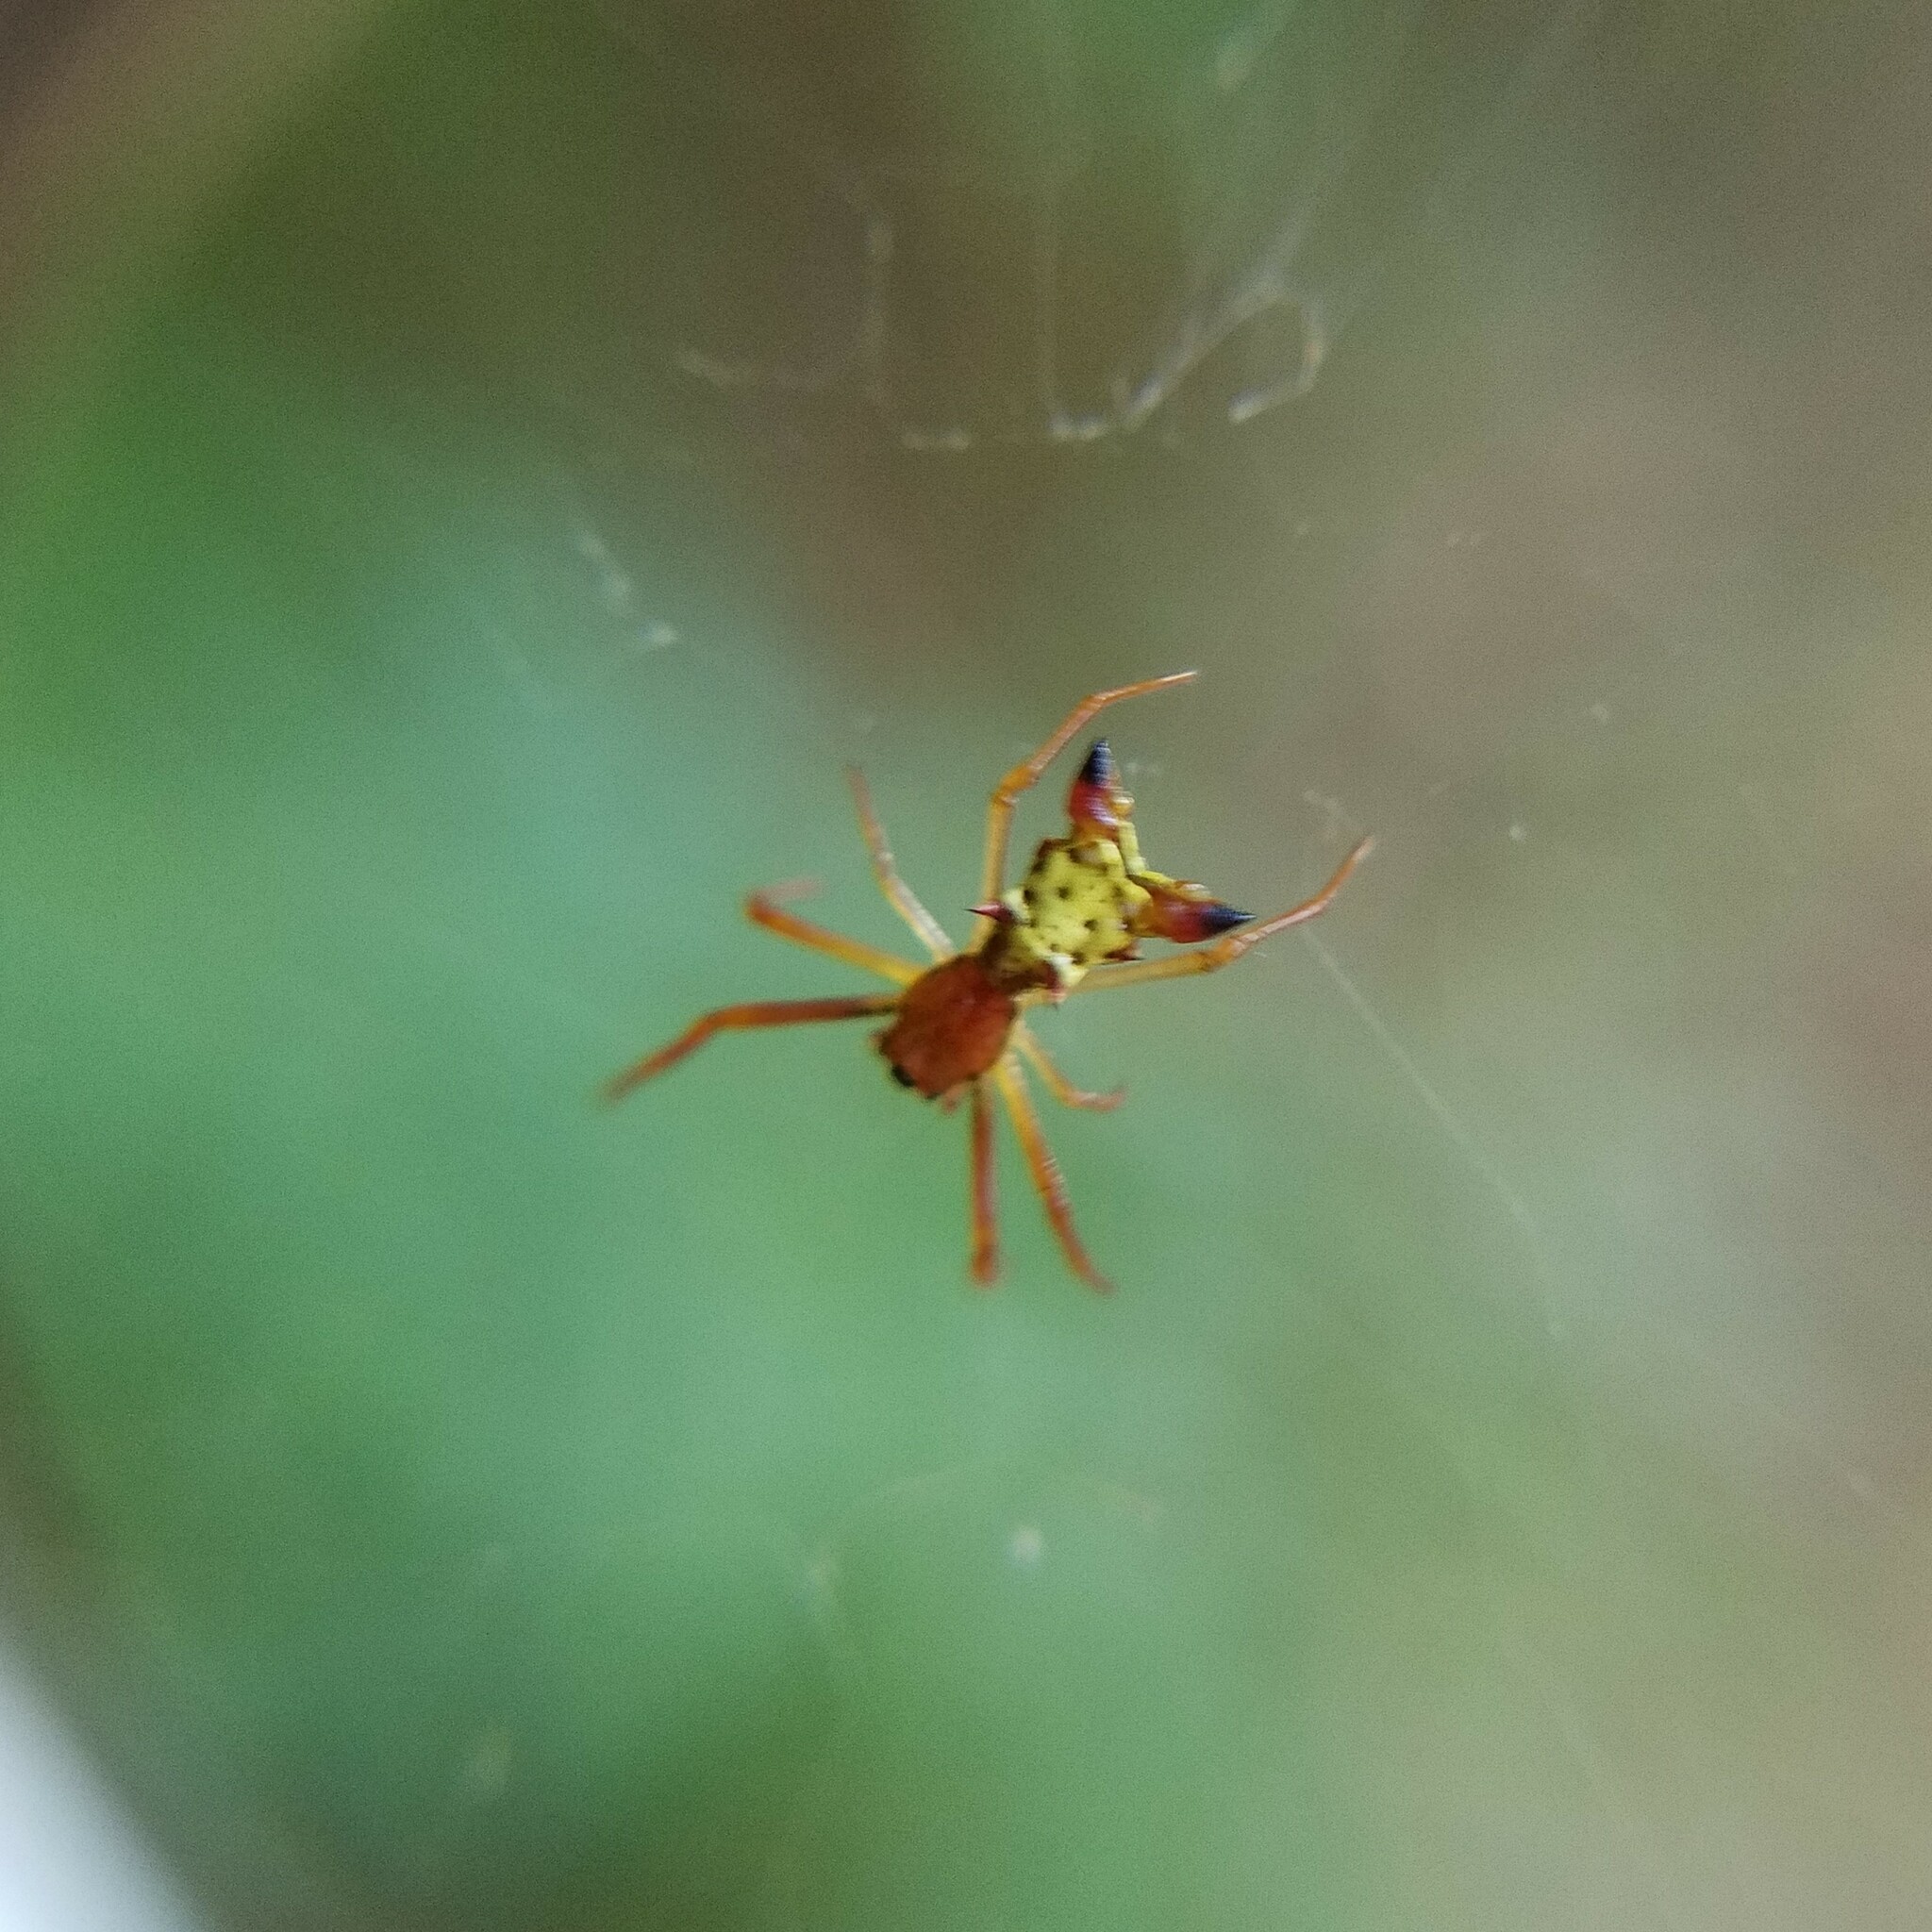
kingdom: Animalia
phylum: Arthropoda
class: Arachnida
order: Araneae
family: Araneidae
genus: Micrathena
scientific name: Micrathena sagittata
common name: Orb weavers
